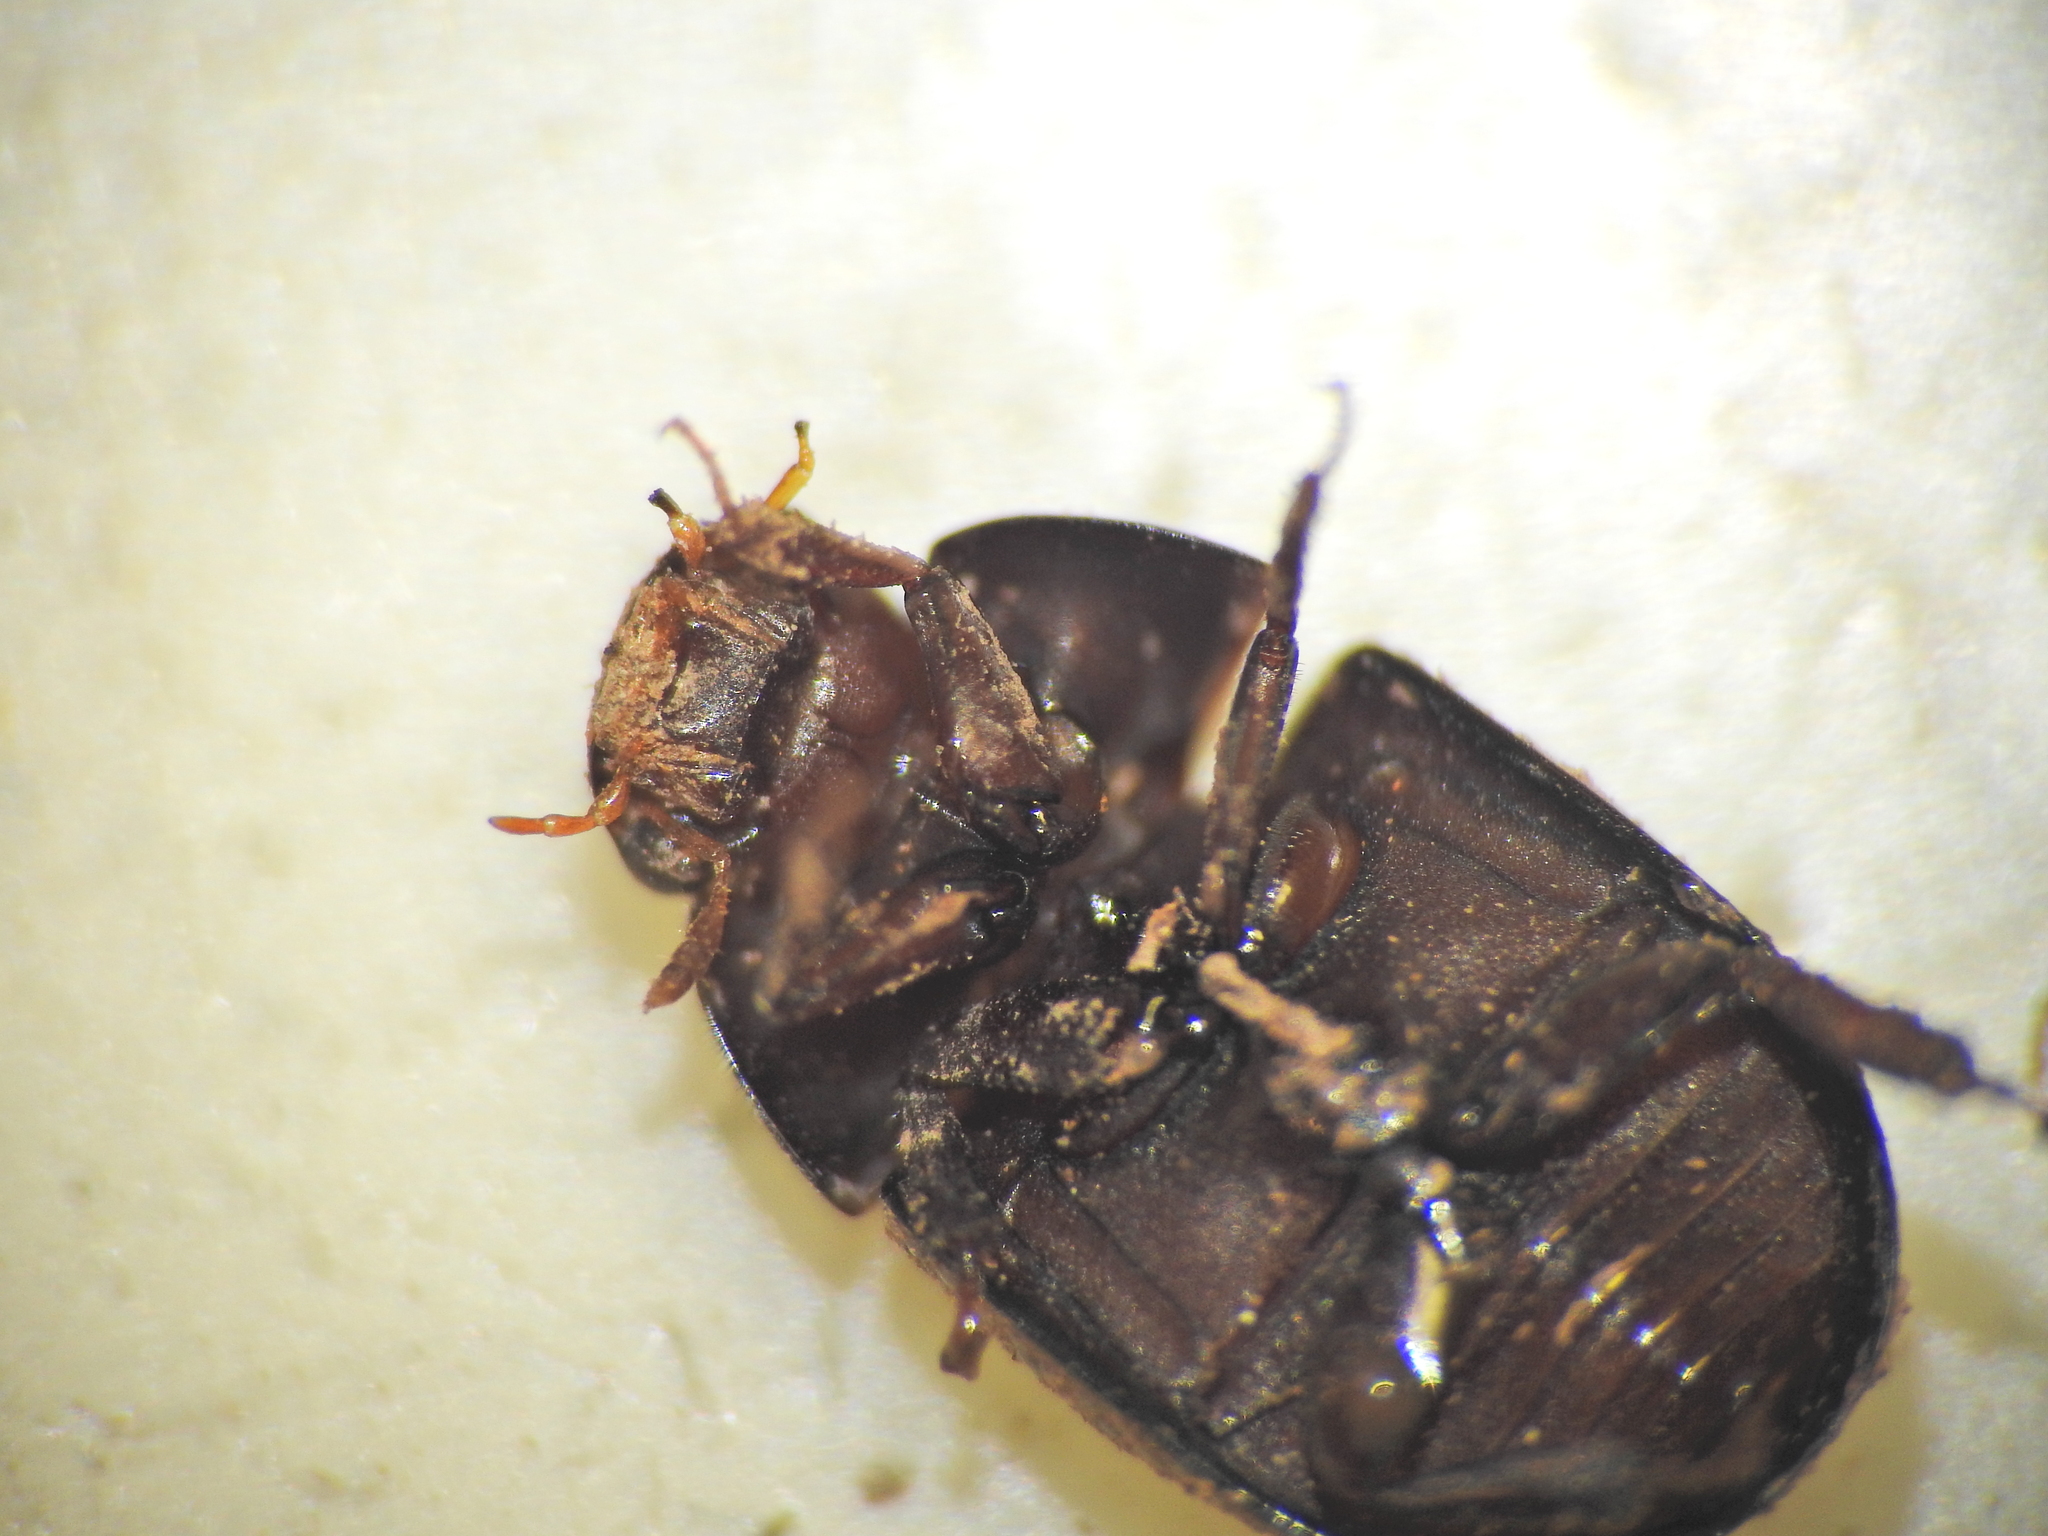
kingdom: Animalia
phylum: Arthropoda
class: Insecta
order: Coleoptera
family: Hydrophilidae
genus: Dactylosternum
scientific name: Dactylosternum
